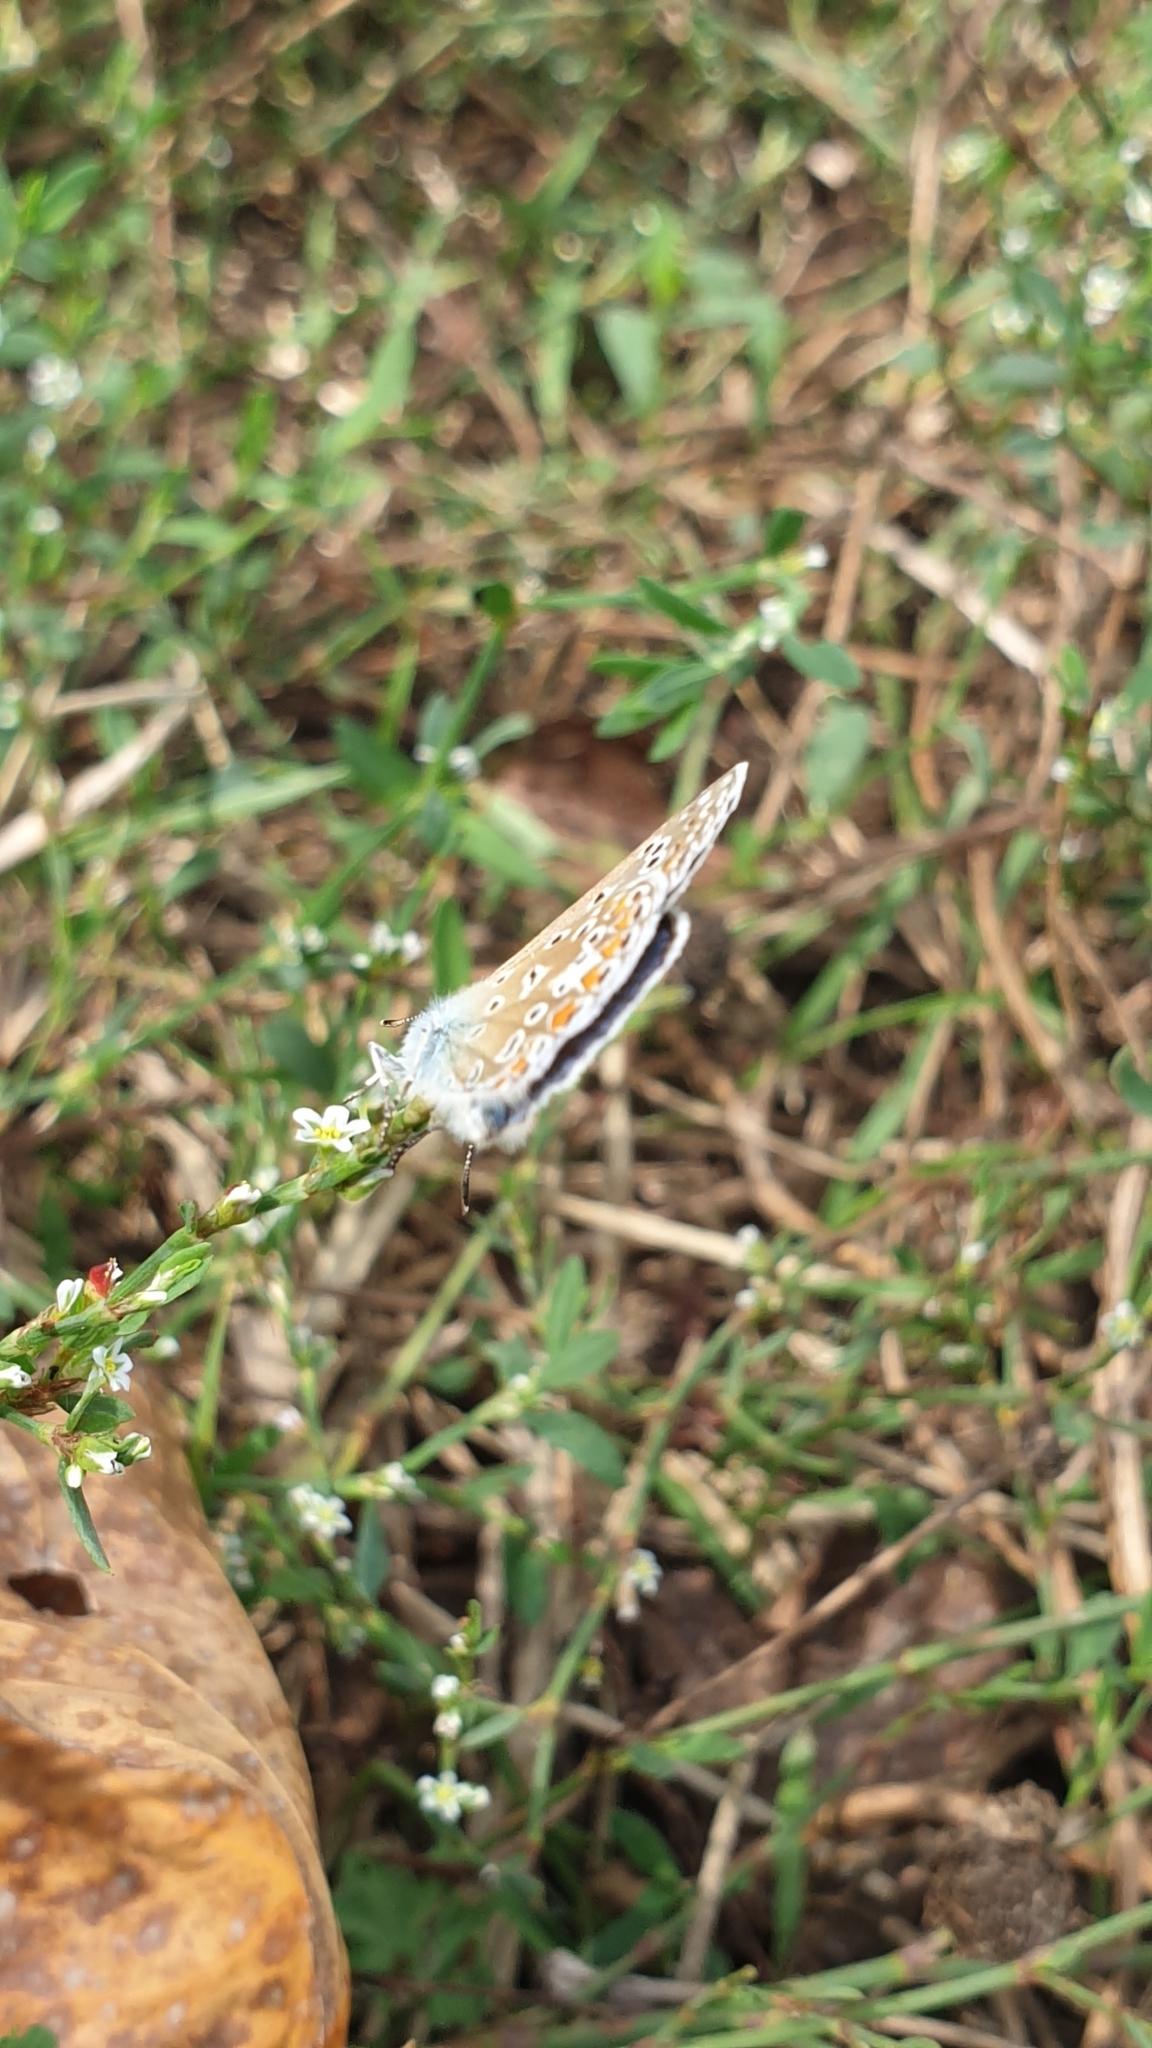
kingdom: Animalia
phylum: Arthropoda
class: Insecta
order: Lepidoptera
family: Lycaenidae
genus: Polyommatus
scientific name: Polyommatus icarus
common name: Common blue
